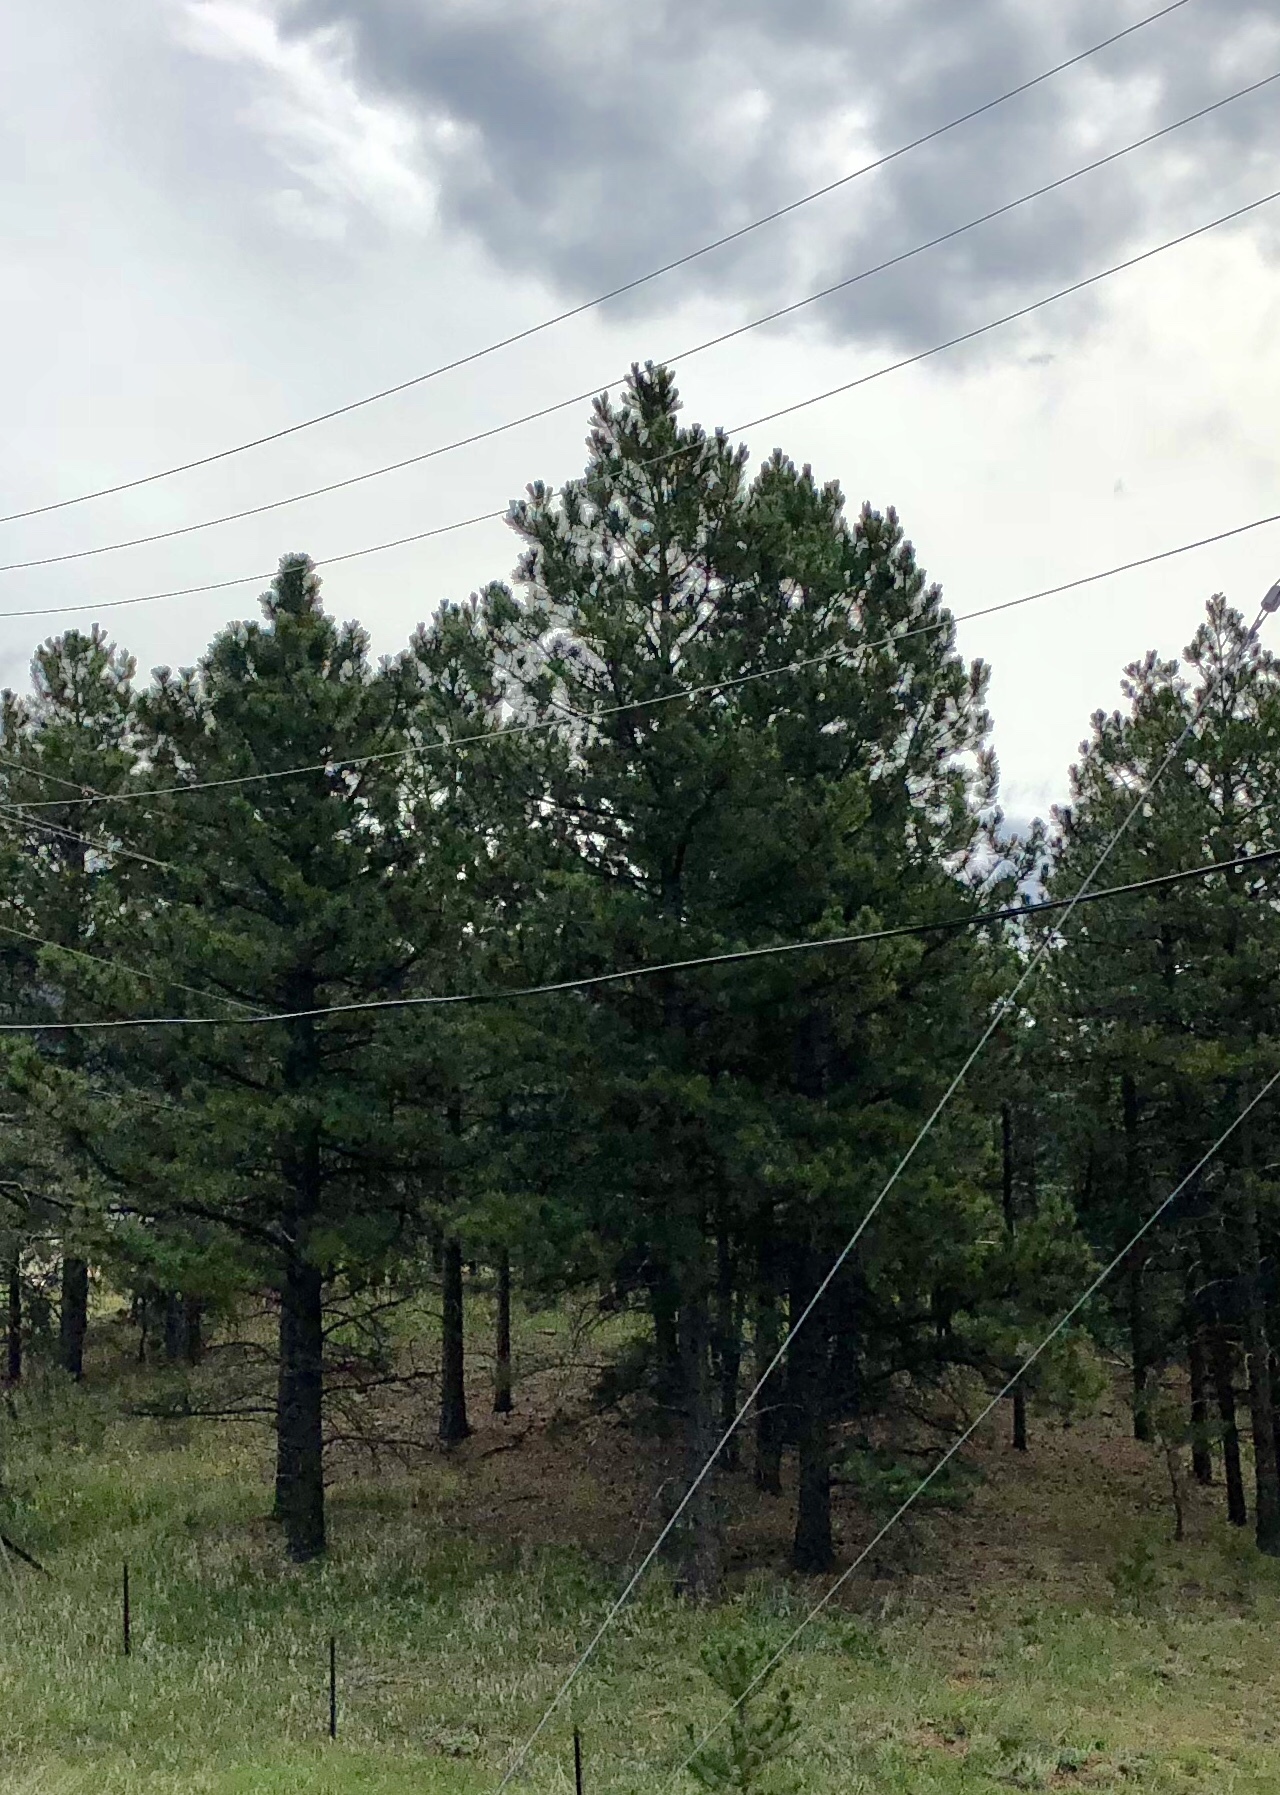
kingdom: Plantae
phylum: Tracheophyta
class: Pinopsida
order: Pinales
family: Pinaceae
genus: Pinus
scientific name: Pinus ponderosa
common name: Western yellow-pine
